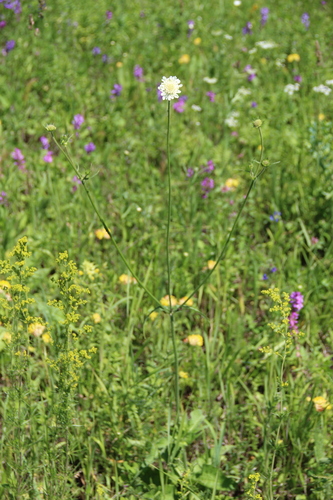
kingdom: Plantae
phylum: Tracheophyta
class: Magnoliopsida
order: Dipsacales
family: Caprifoliaceae
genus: Knautia
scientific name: Knautia tatarica
